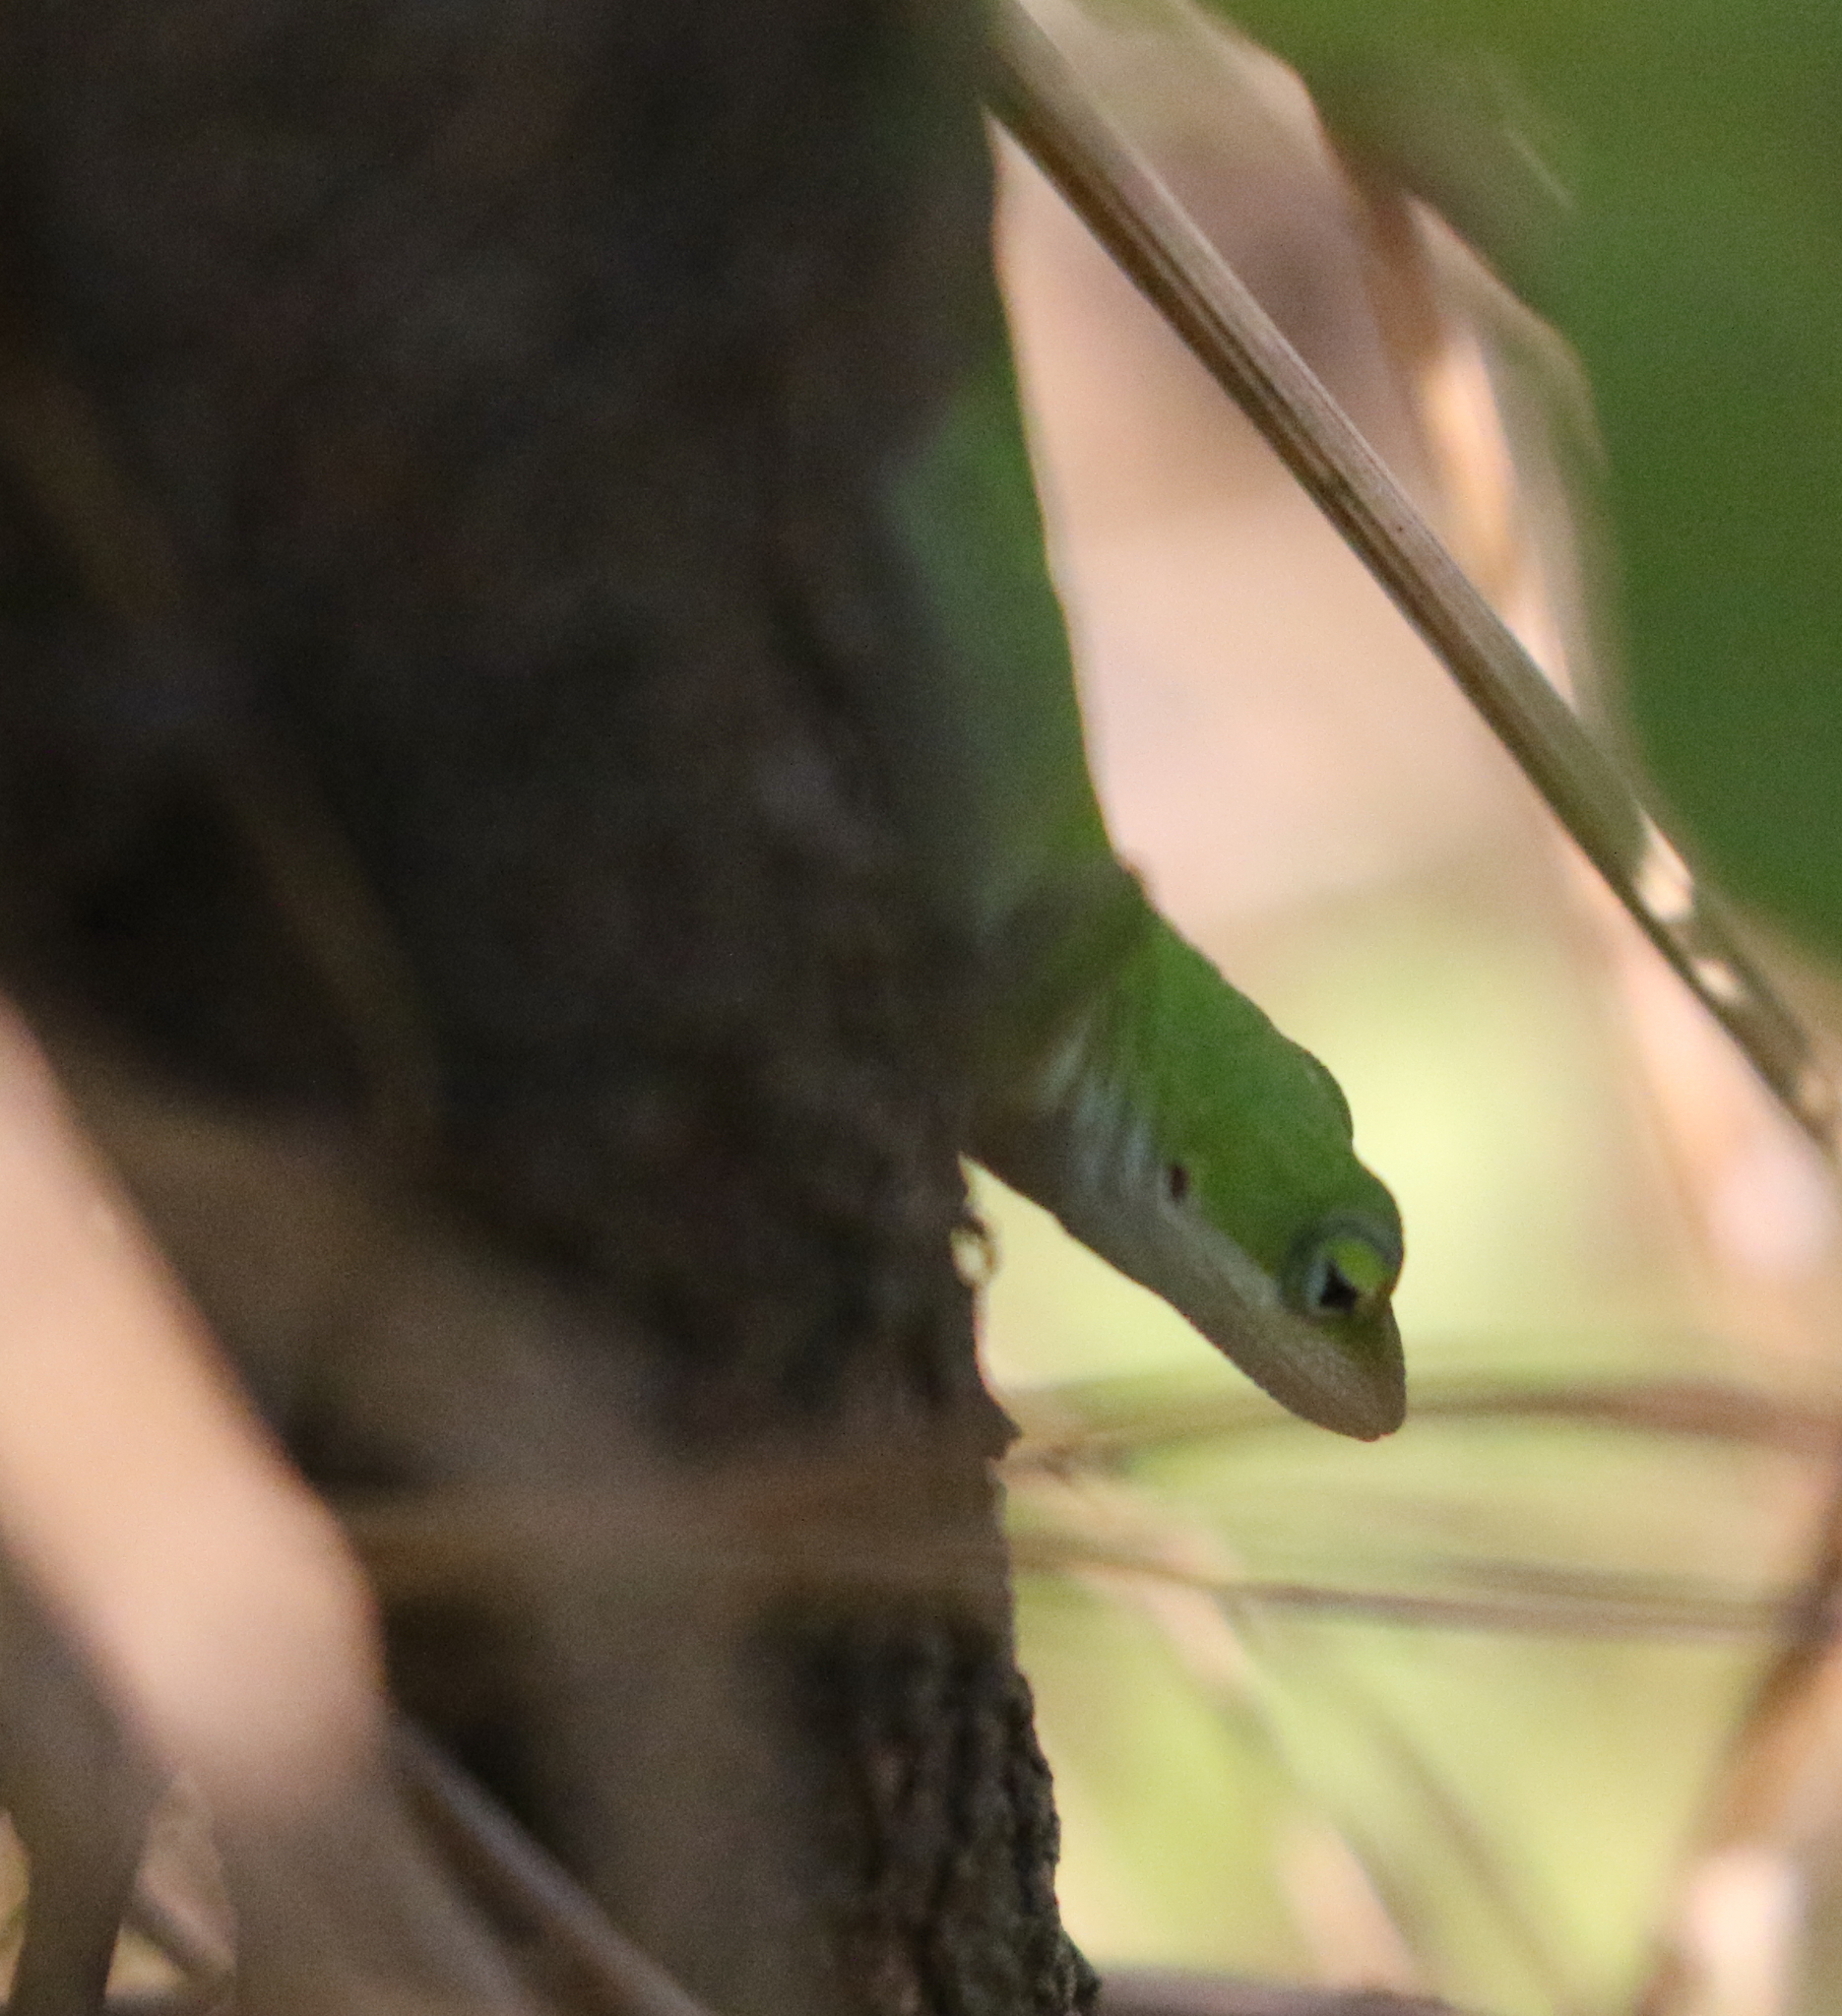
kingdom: Animalia
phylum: Chordata
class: Squamata
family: Dactyloidae
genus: Anolis
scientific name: Anolis carolinensis
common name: Green anole
